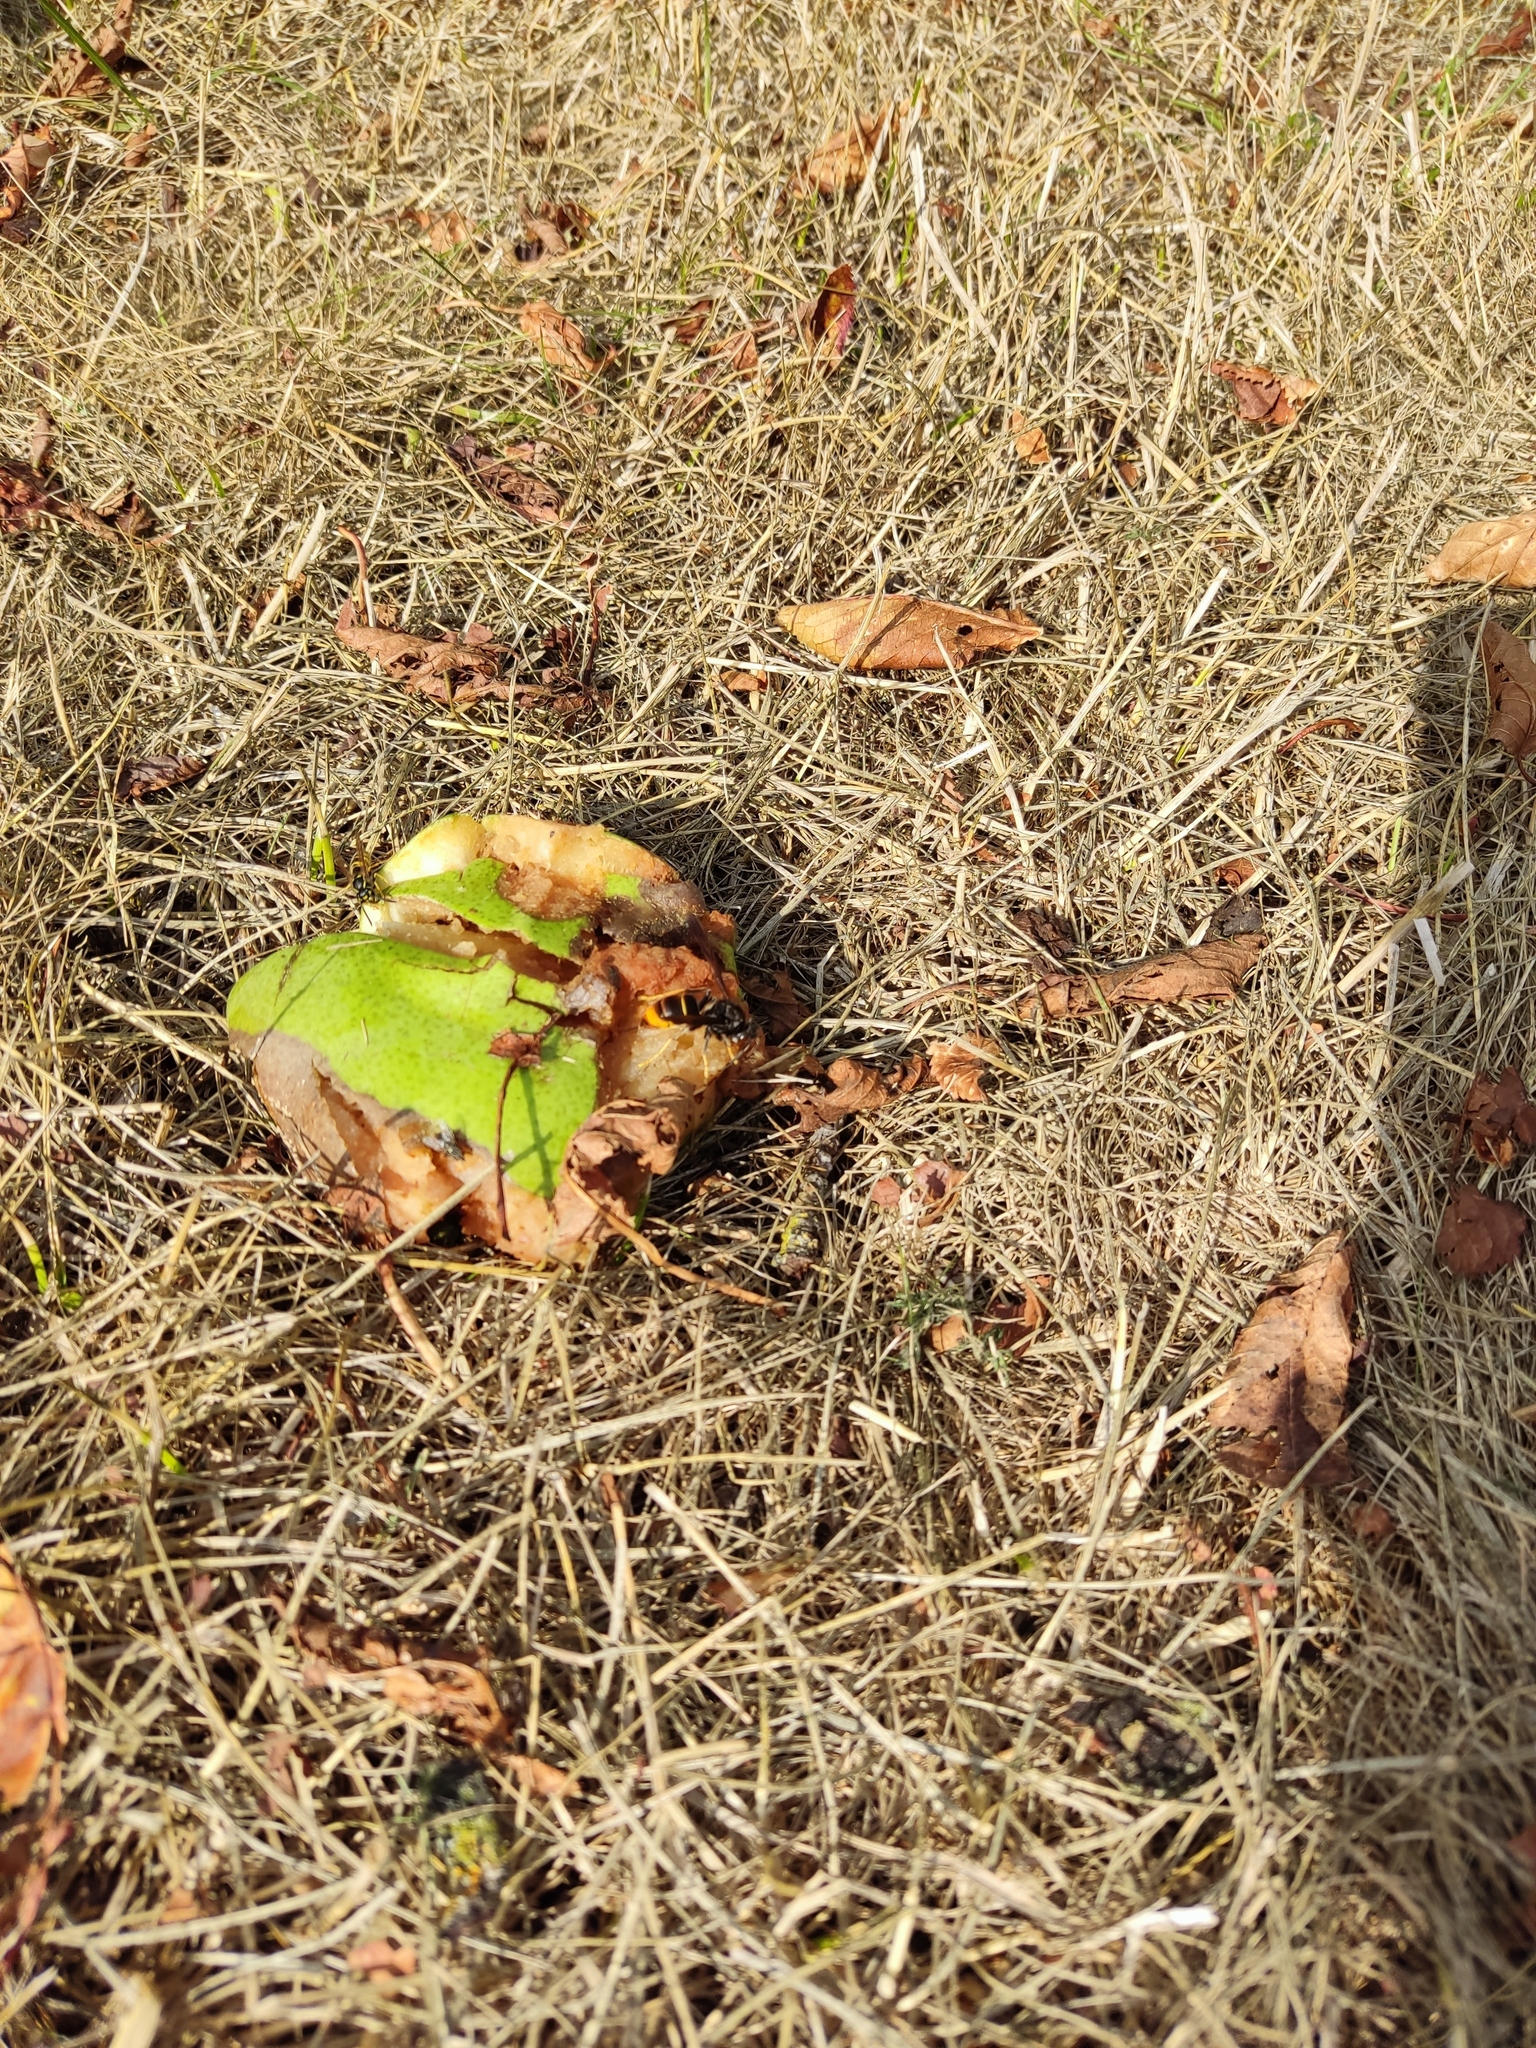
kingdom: Animalia
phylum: Arthropoda
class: Insecta
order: Hymenoptera
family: Vespidae
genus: Vespa
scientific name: Vespa velutina
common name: Asian hornet
